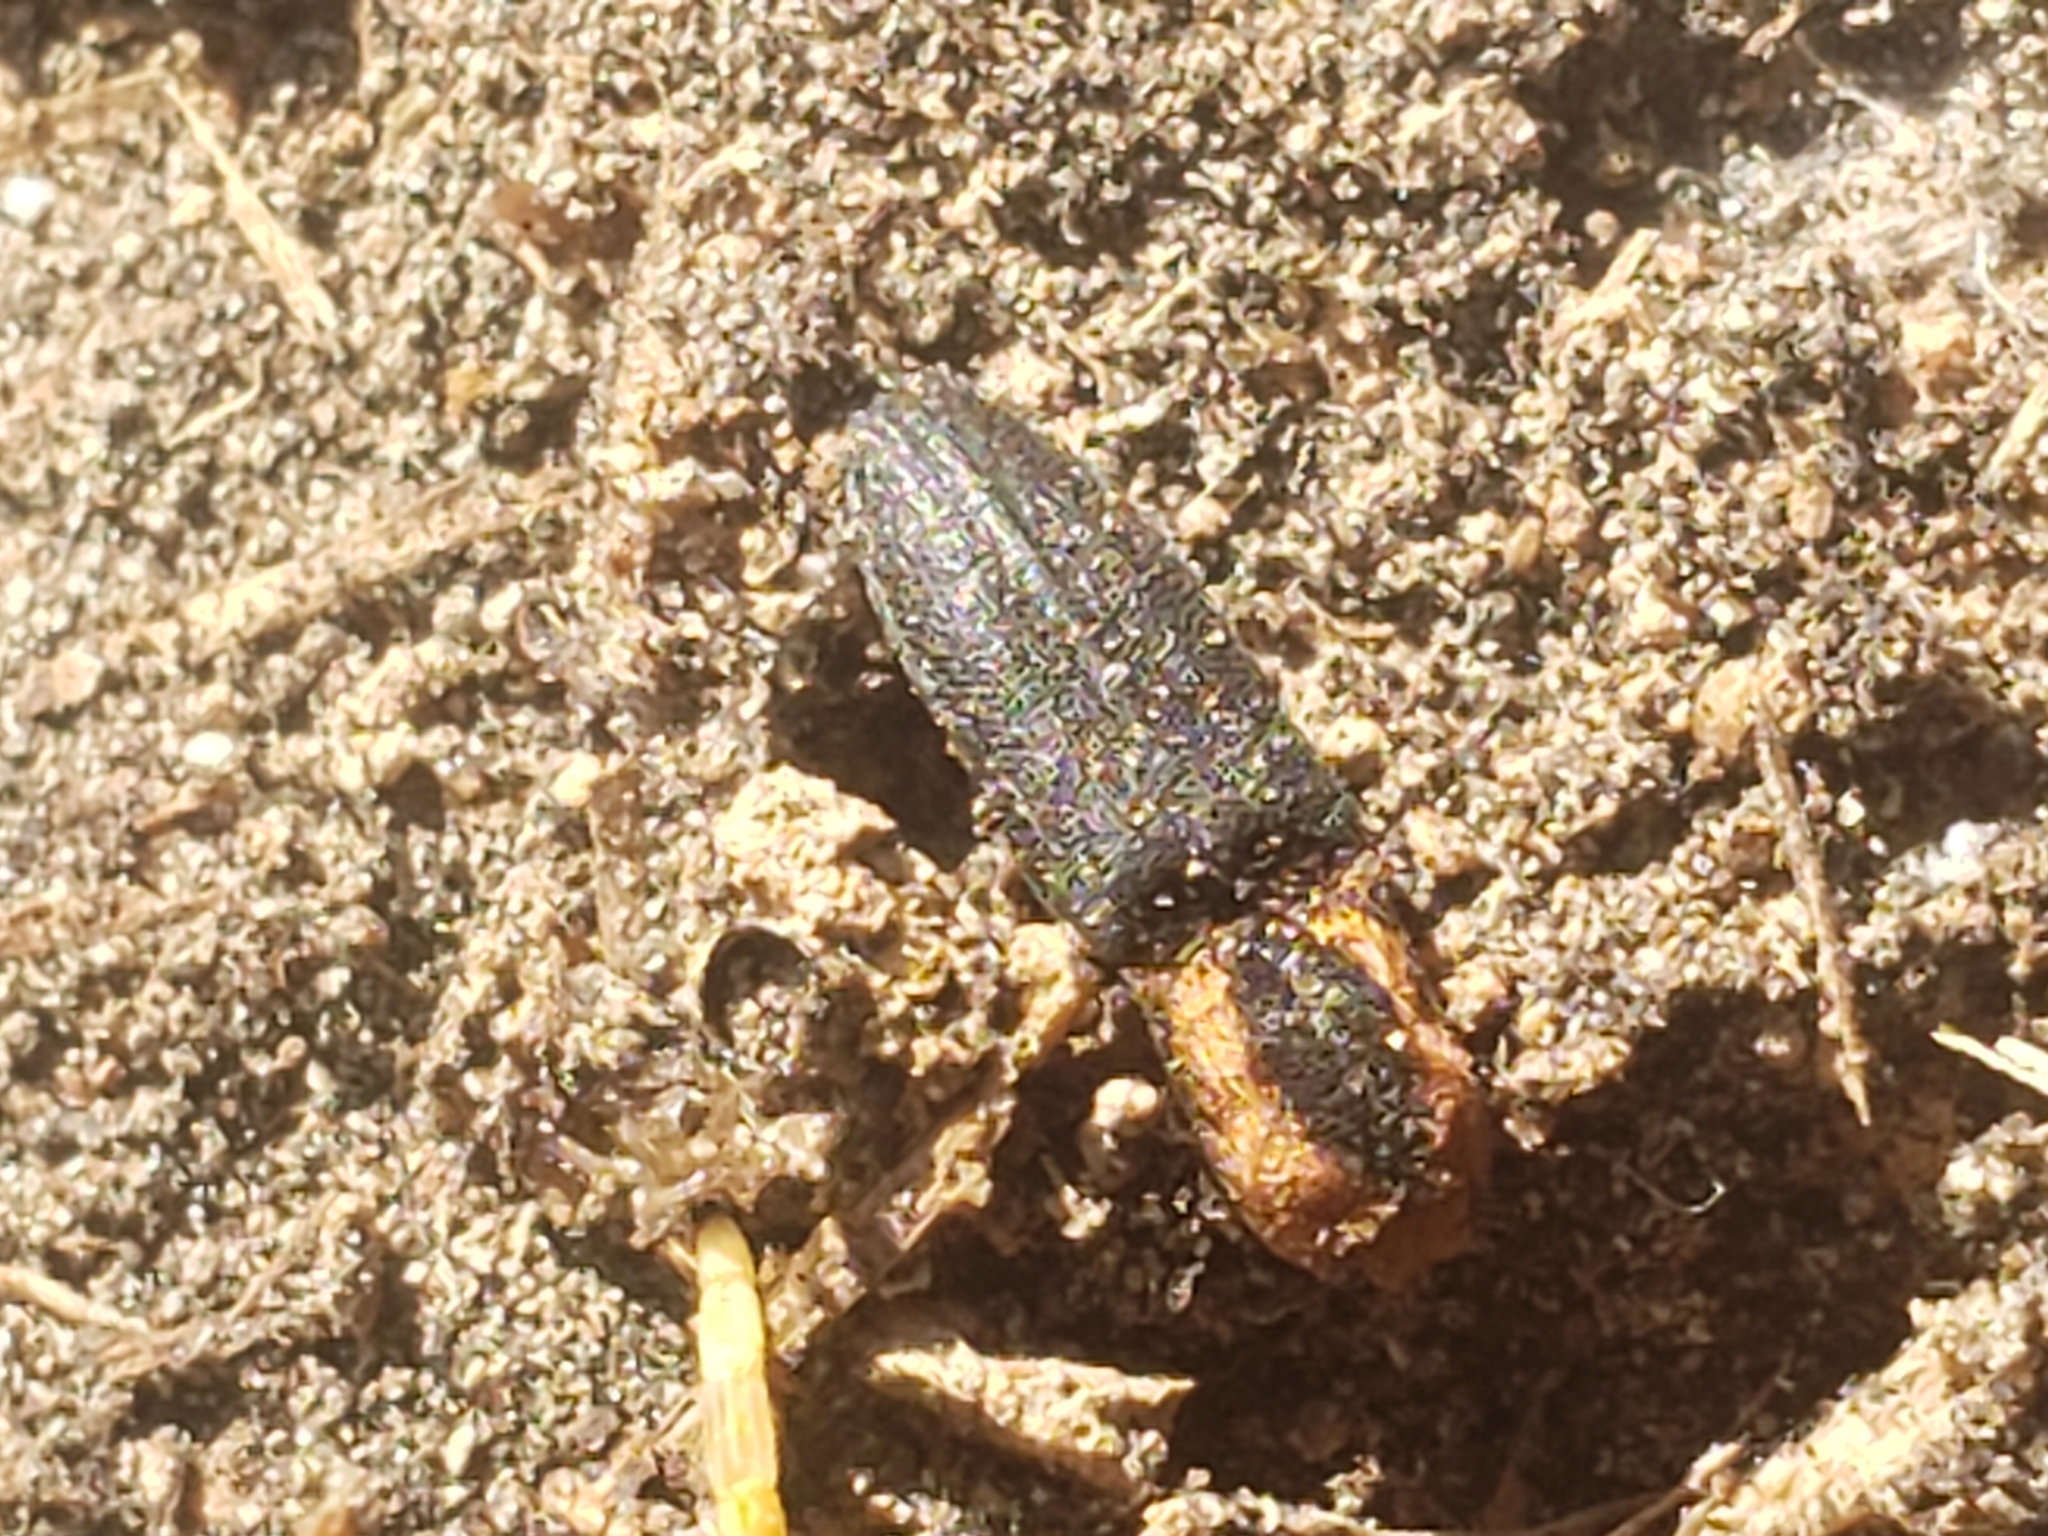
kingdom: Animalia
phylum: Arthropoda
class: Insecta
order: Coleoptera
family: Elateridae
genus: Lacon
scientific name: Lacon discoideus
